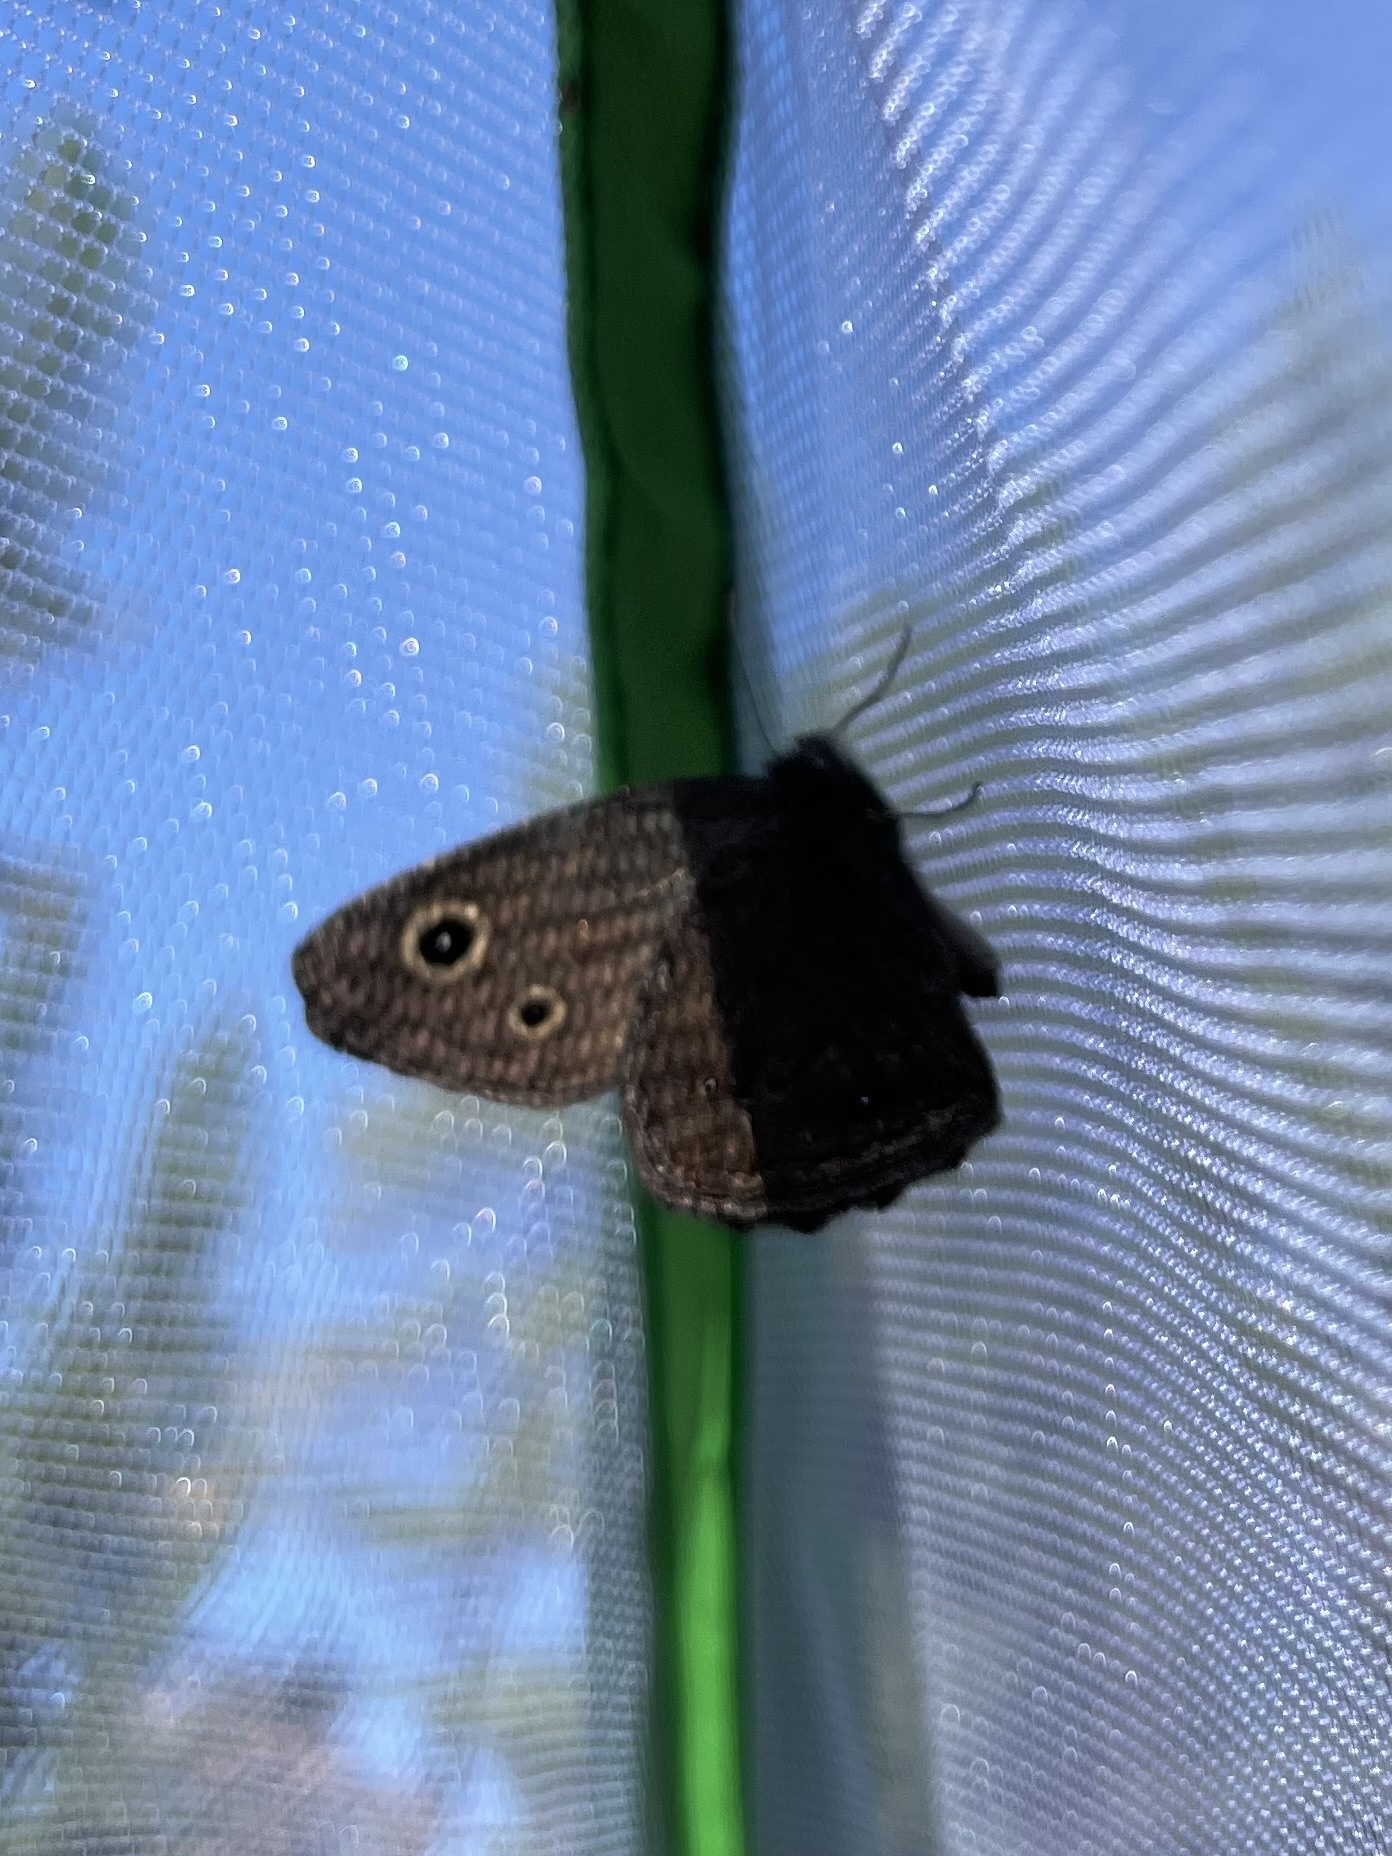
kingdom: Animalia
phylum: Arthropoda
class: Insecta
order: Lepidoptera
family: Nymphalidae
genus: Cercyonis
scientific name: Cercyonis oetus
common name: Small wood-nymph
